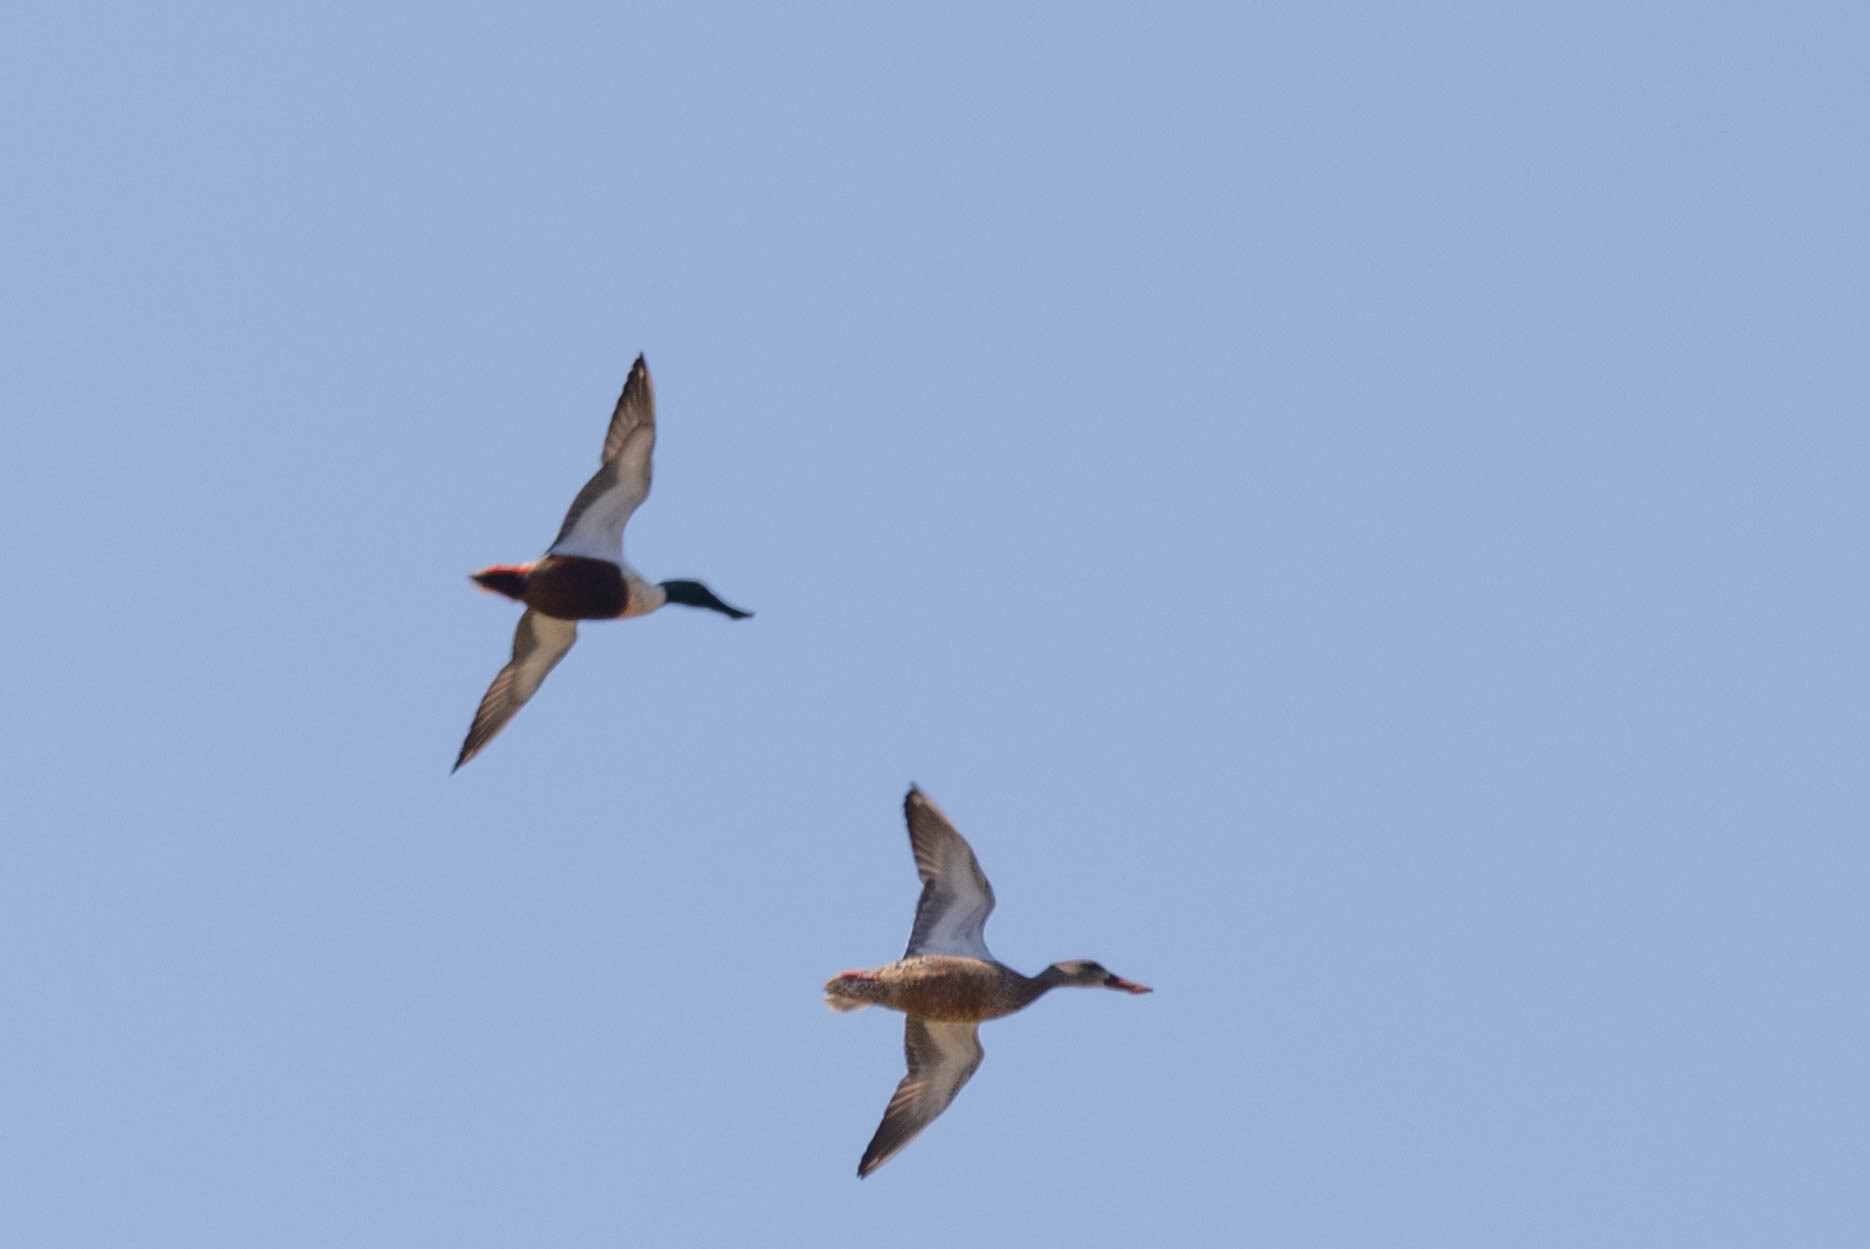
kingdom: Animalia
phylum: Chordata
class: Aves
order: Anseriformes
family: Anatidae
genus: Spatula
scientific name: Spatula clypeata
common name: Northern shoveler
